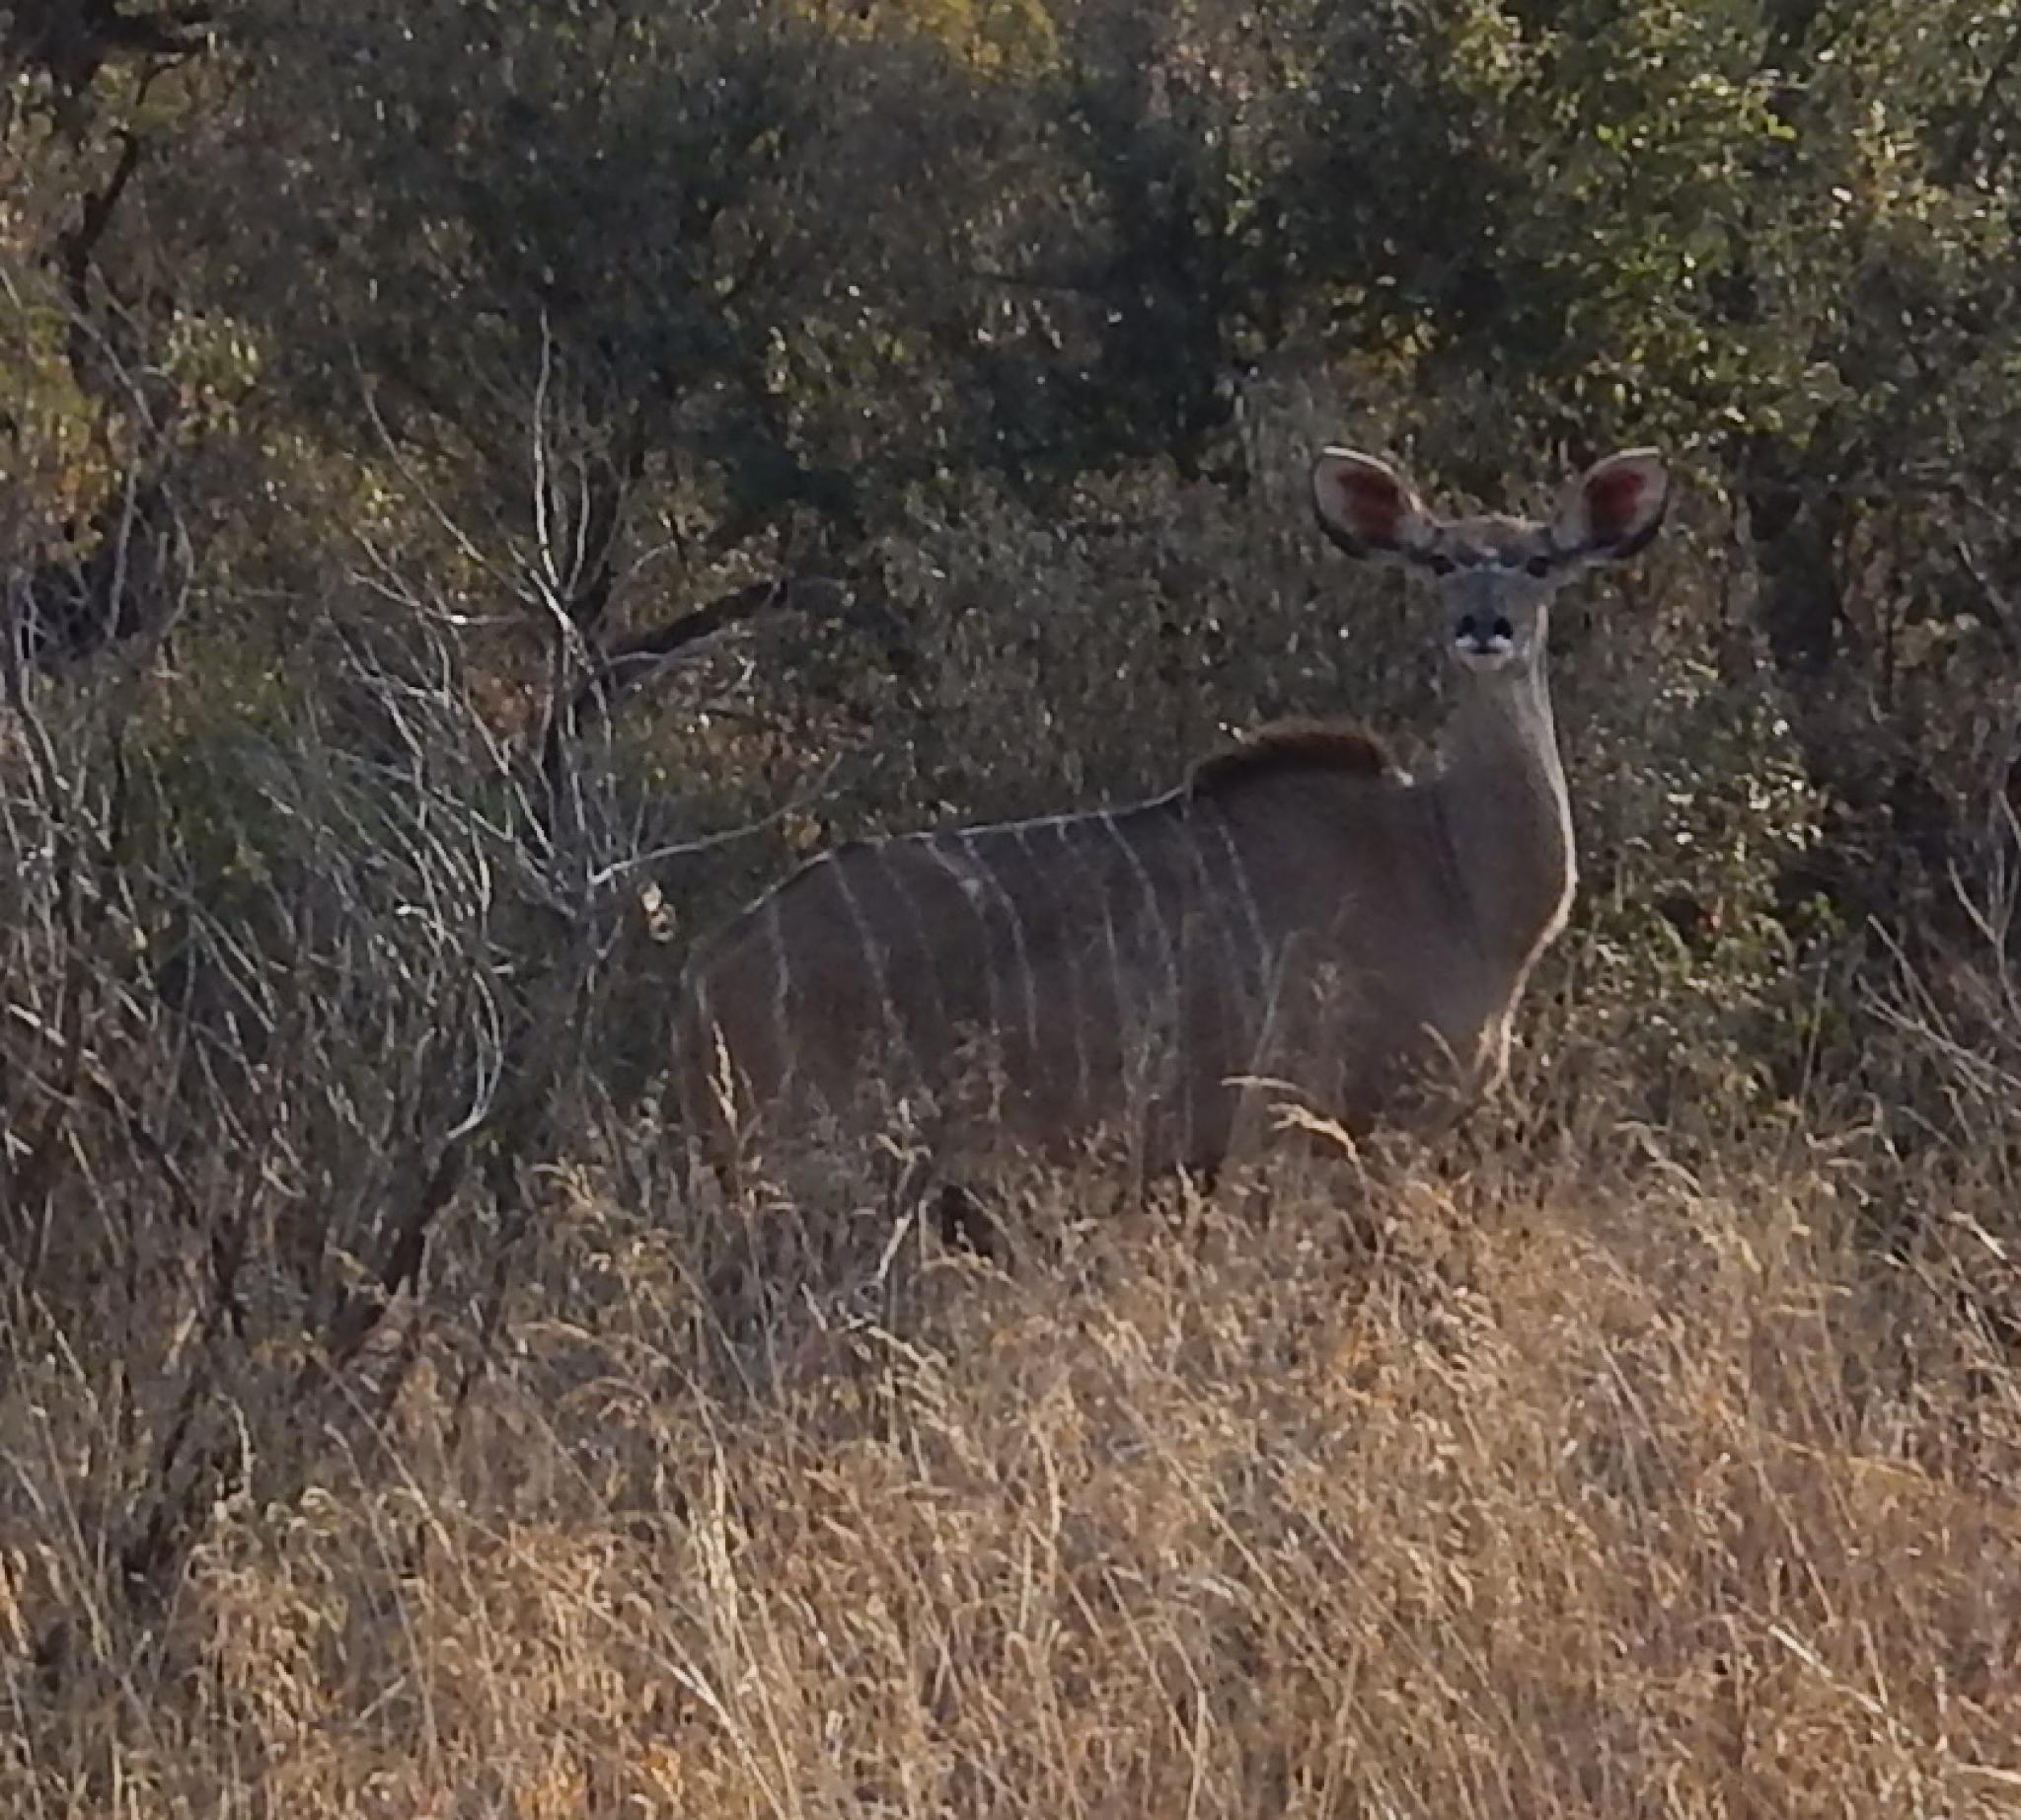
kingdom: Animalia
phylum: Chordata
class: Mammalia
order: Artiodactyla
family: Bovidae
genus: Tragelaphus
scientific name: Tragelaphus strepsiceros
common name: Greater kudu
